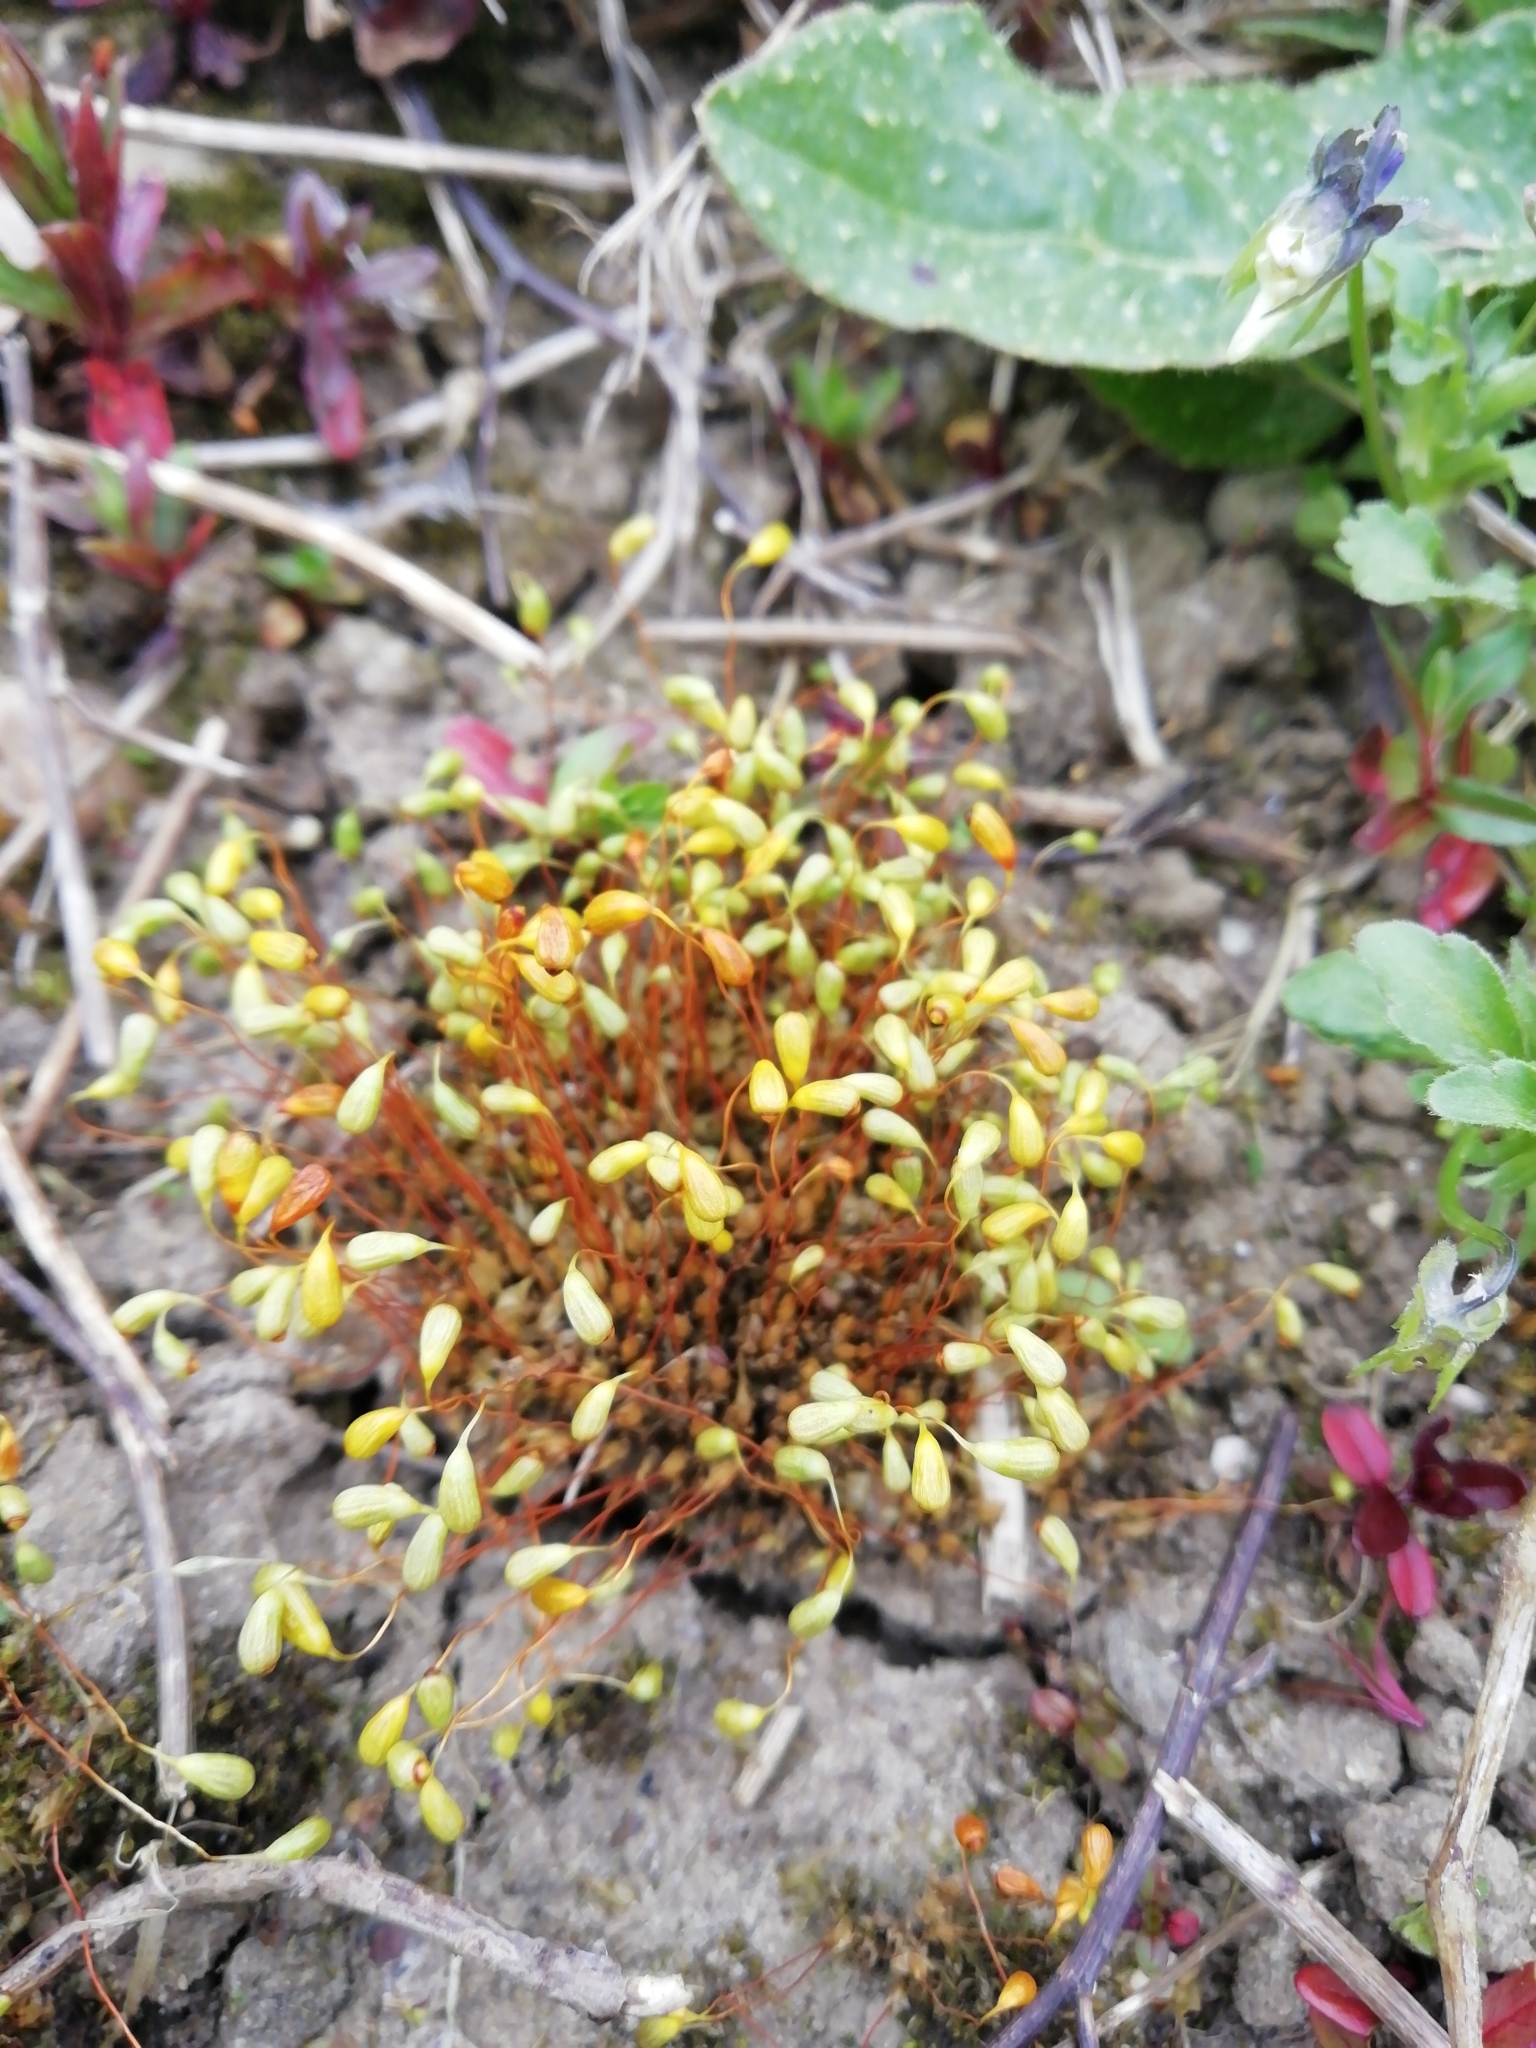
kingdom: Plantae
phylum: Bryophyta
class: Bryopsida
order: Funariales
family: Funariaceae
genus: Funaria
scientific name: Funaria hygrometrica
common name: Common cord moss
